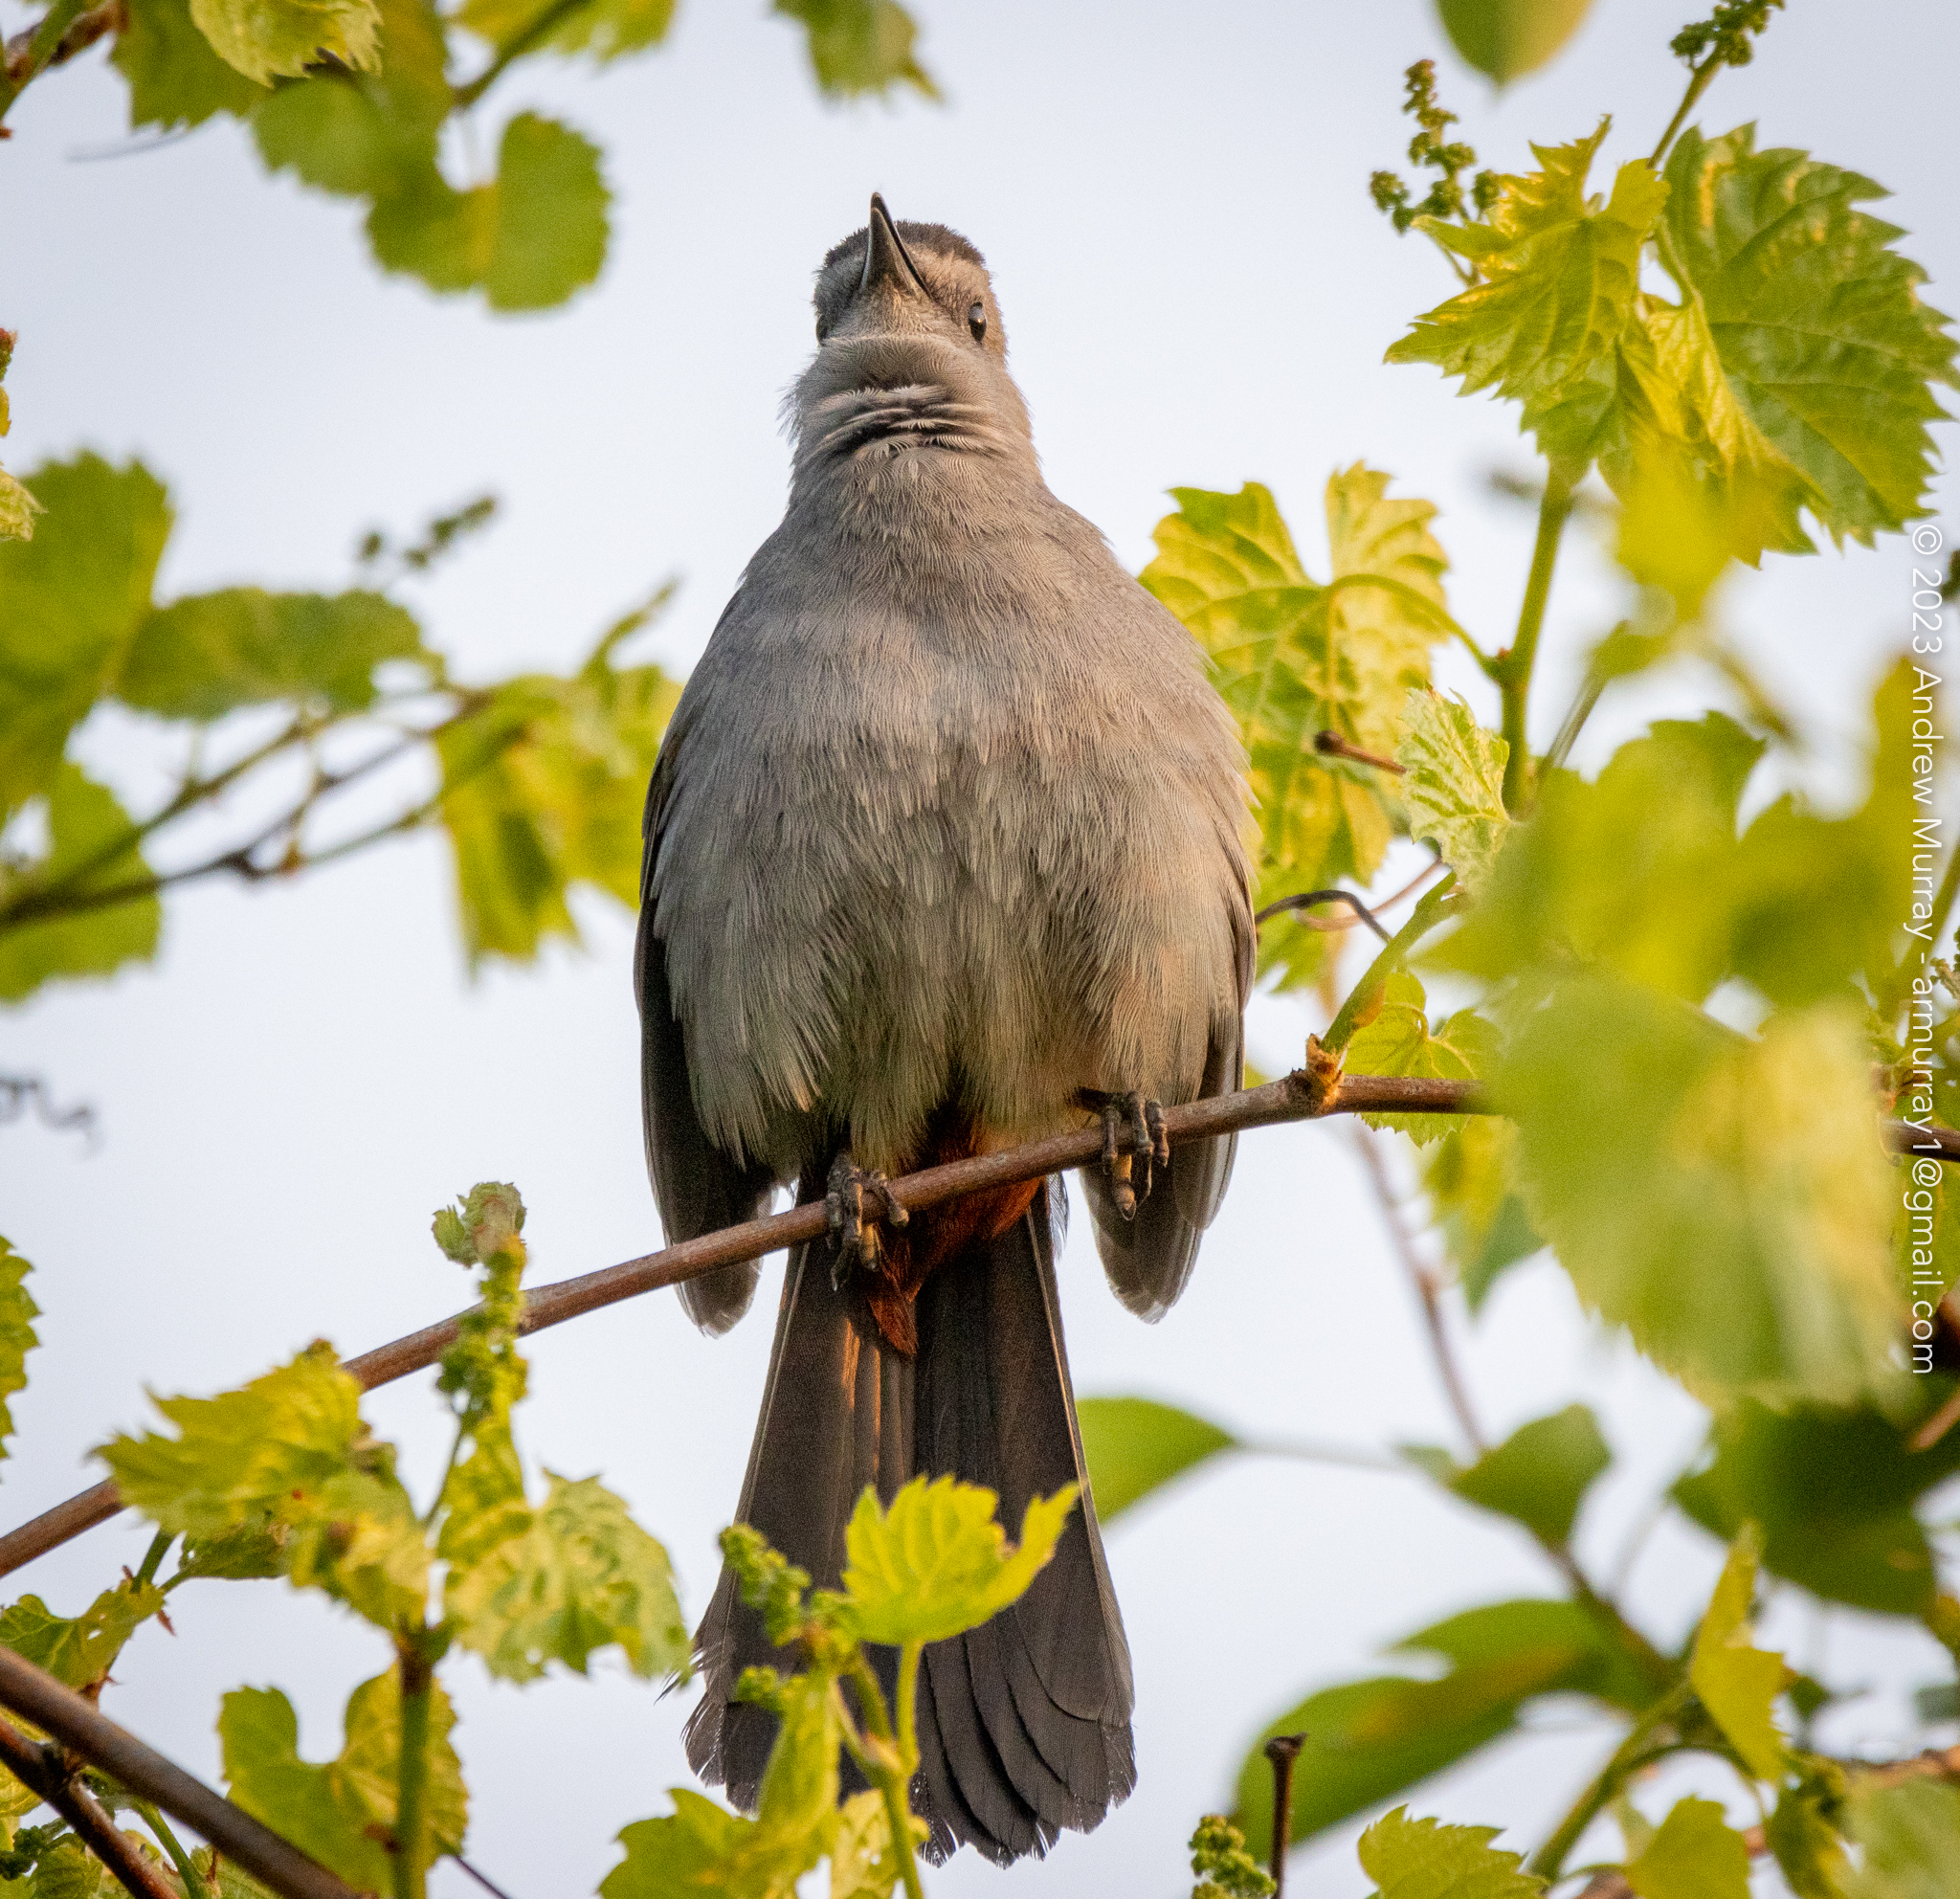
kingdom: Animalia
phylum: Chordata
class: Aves
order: Passeriformes
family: Mimidae
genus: Dumetella
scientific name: Dumetella carolinensis
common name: Gray catbird
